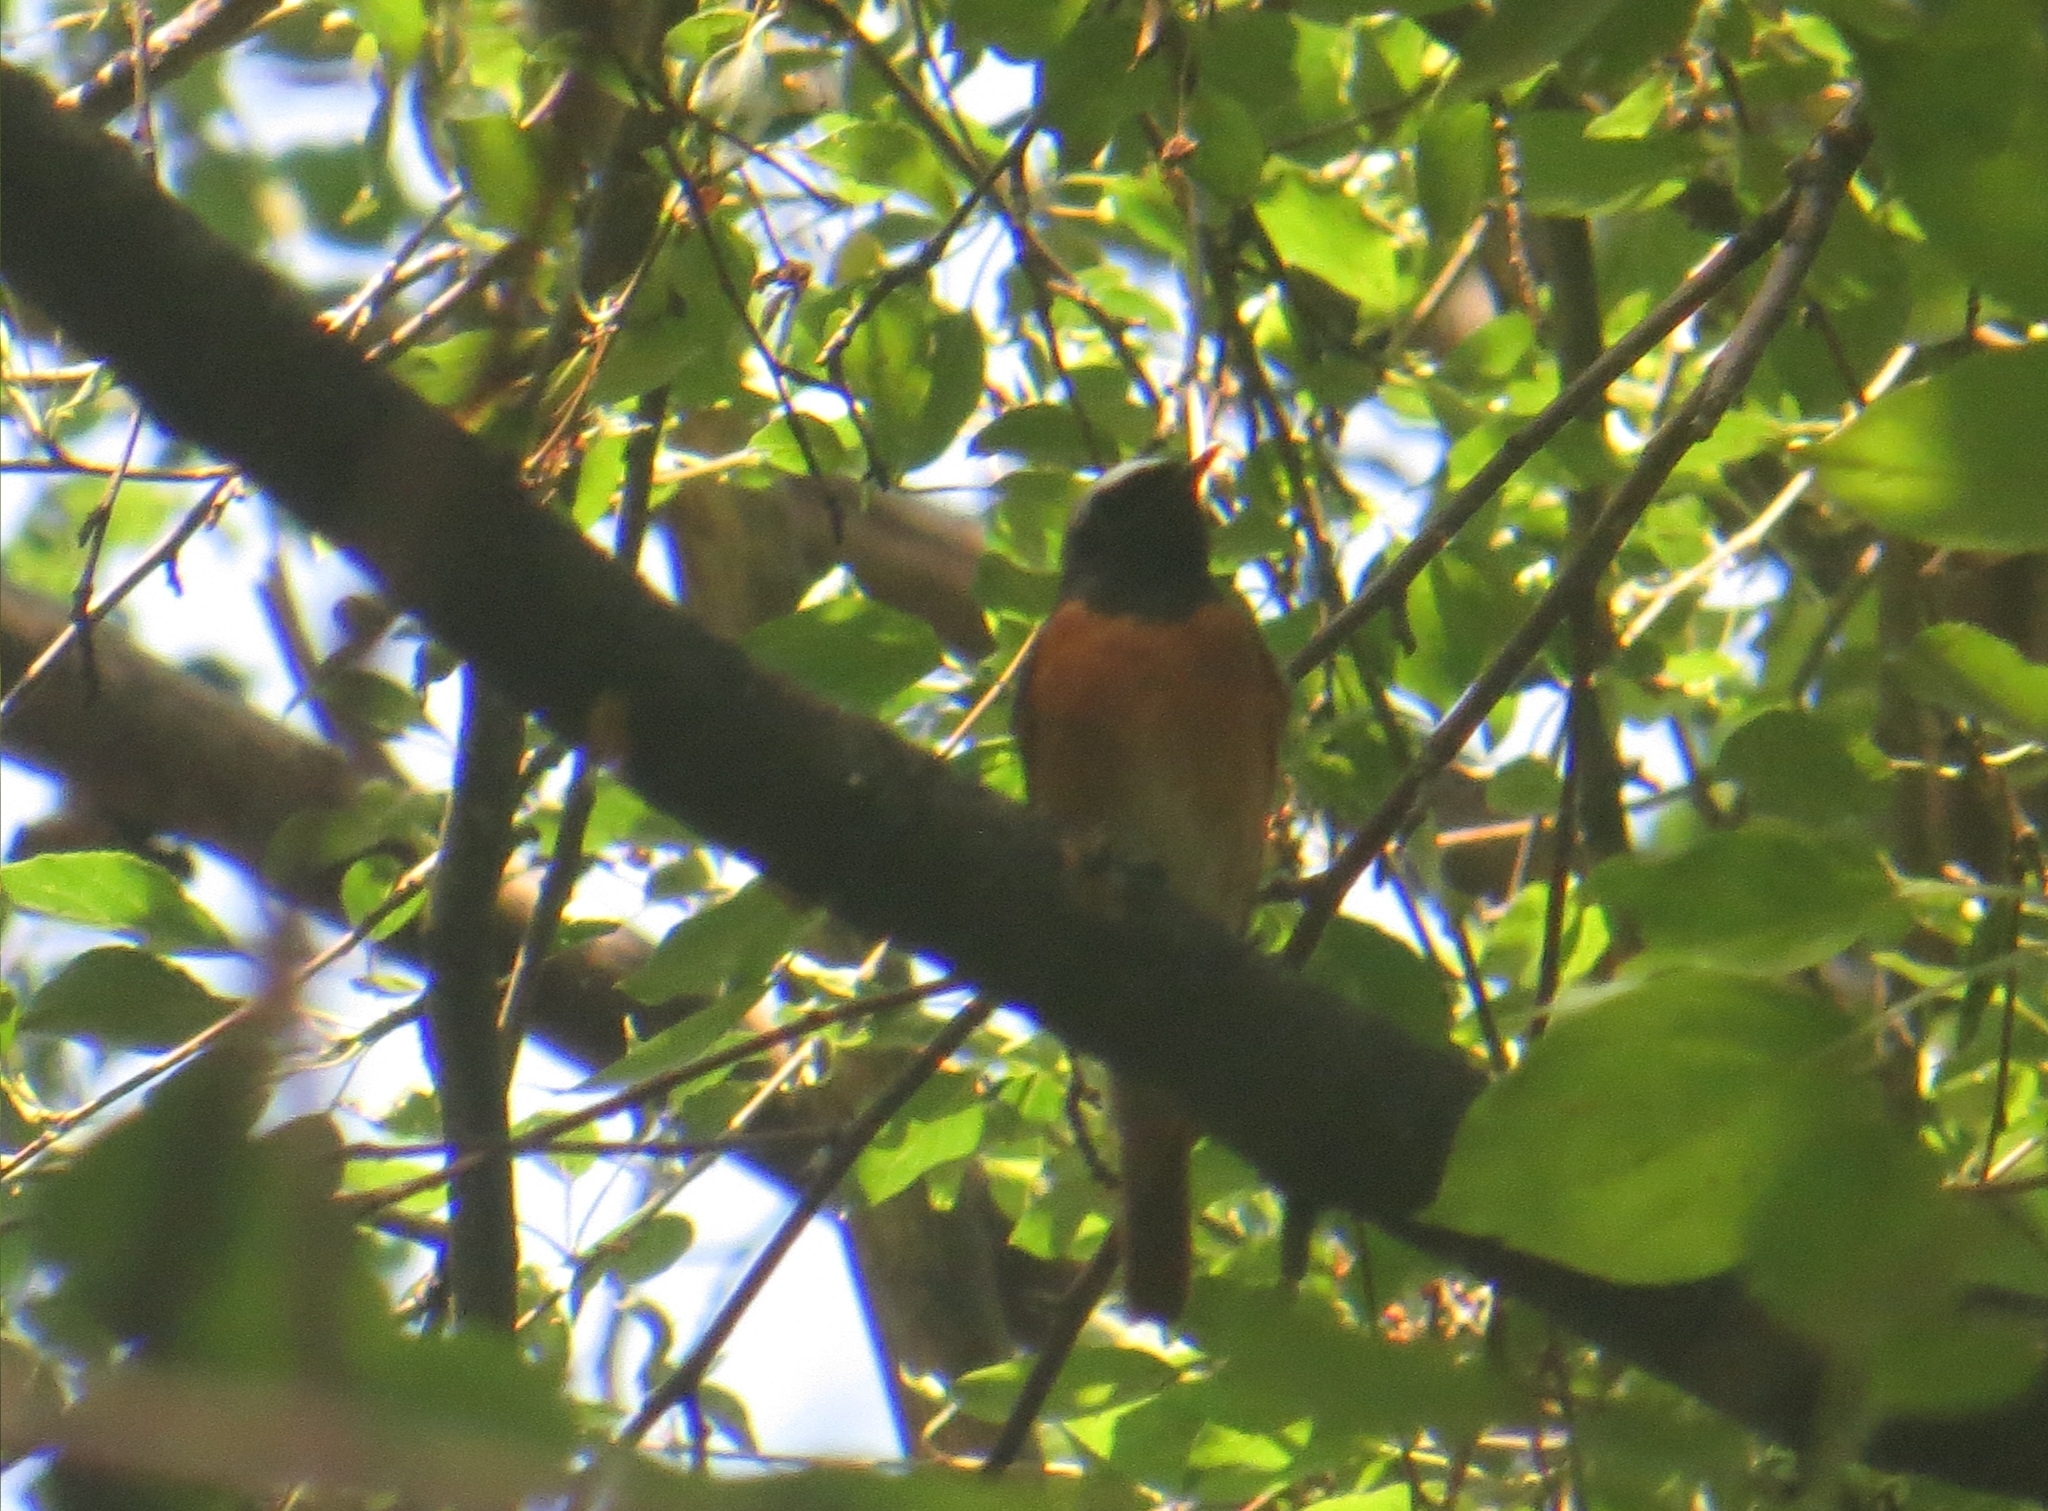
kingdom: Animalia
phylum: Chordata
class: Aves
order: Passeriformes
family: Muscicapidae
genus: Phoenicurus
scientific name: Phoenicurus phoenicurus
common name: Common redstart
